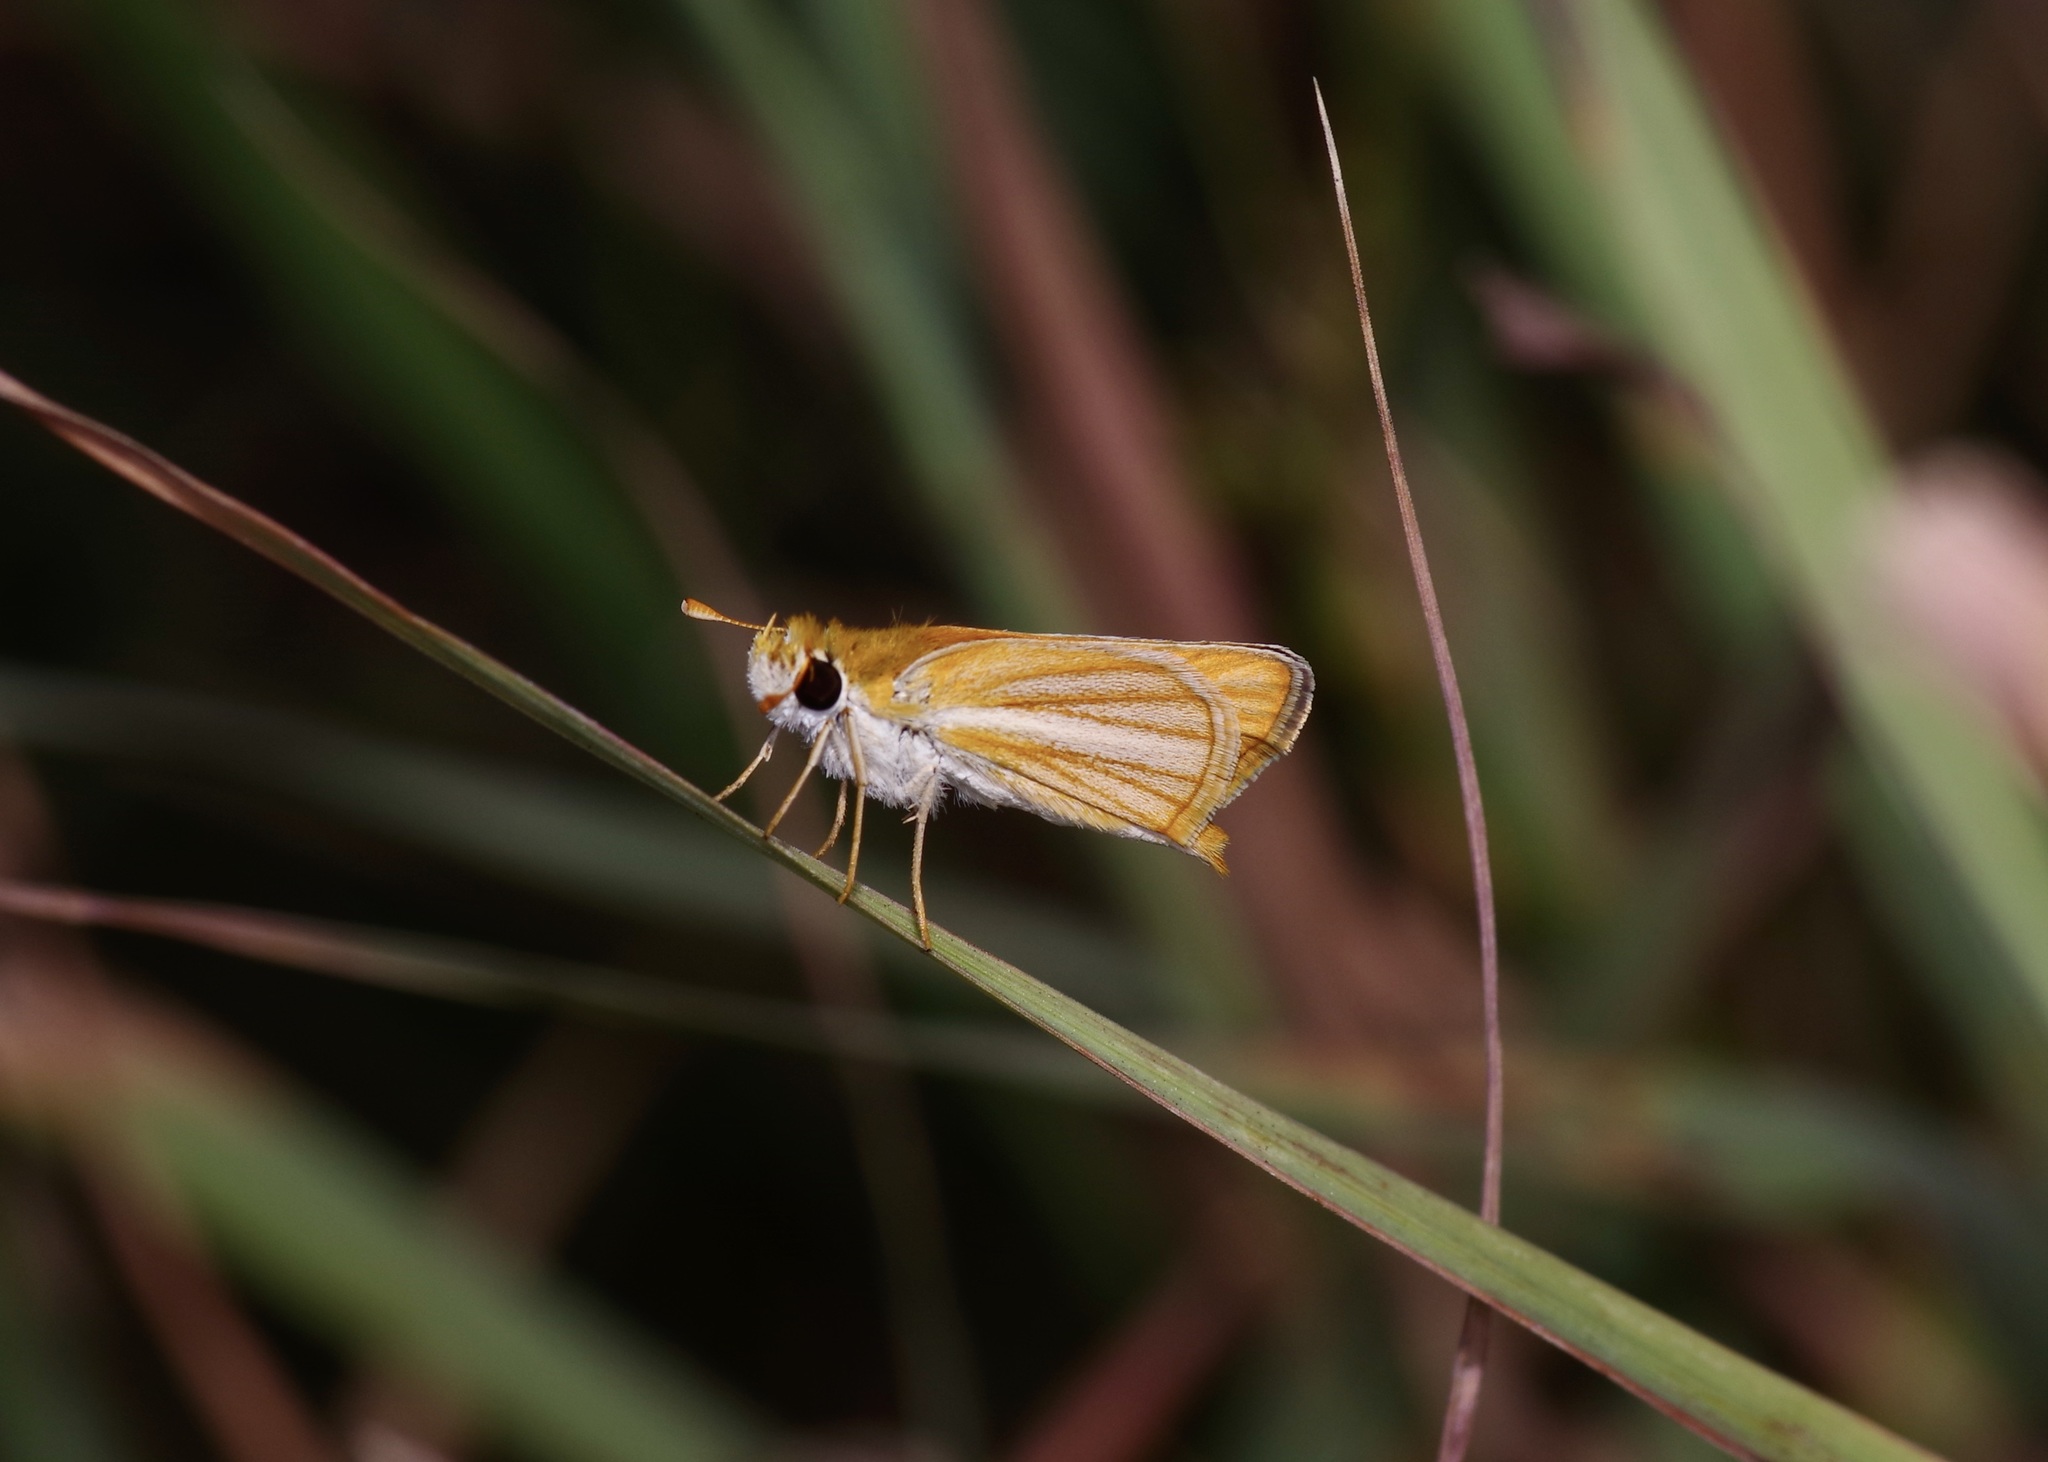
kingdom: Animalia
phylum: Arthropoda
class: Insecta
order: Lepidoptera
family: Hesperiidae
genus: Copaeodes
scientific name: Copaeodes minima
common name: Southern skipperling
